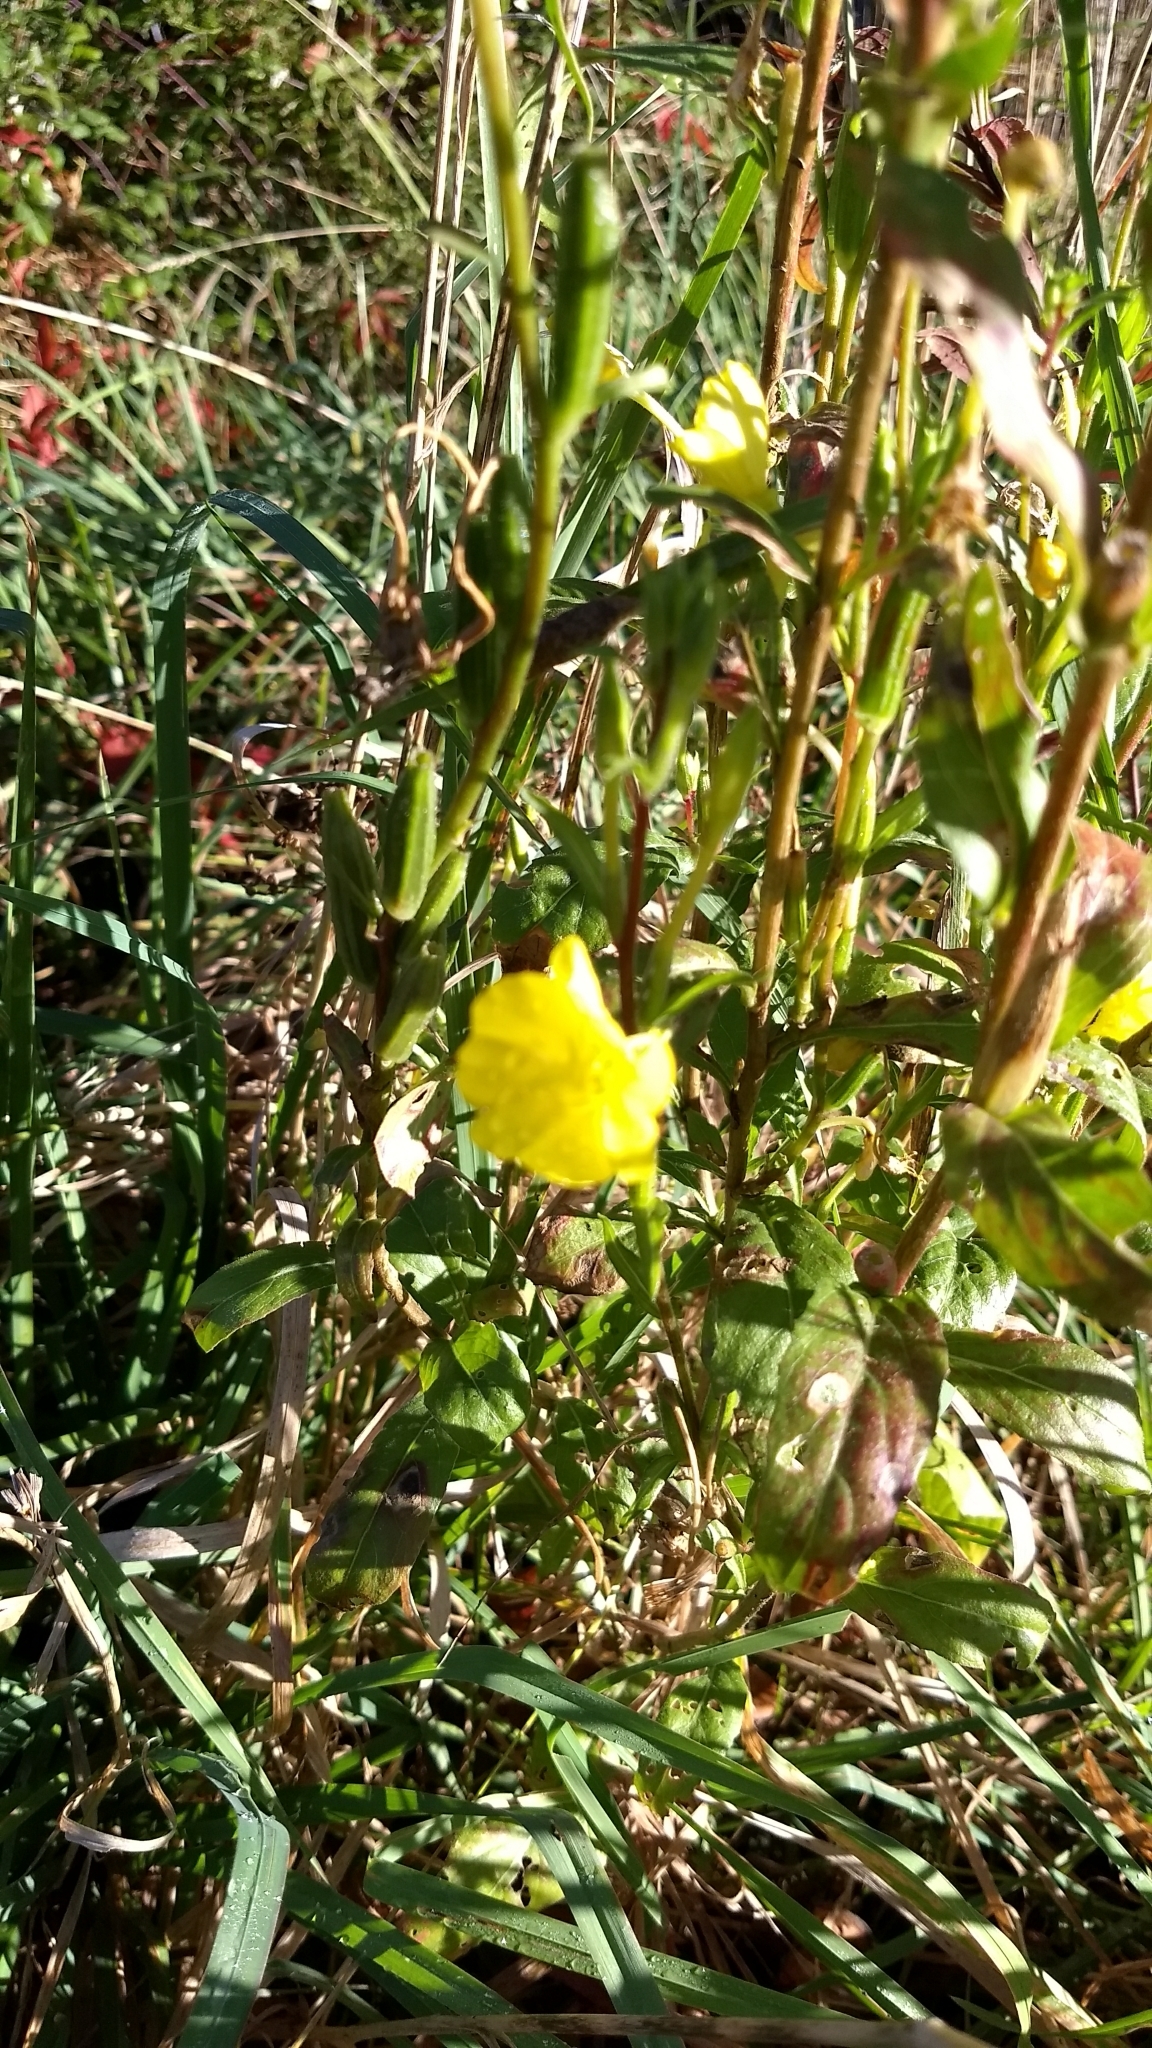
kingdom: Plantae
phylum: Tracheophyta
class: Magnoliopsida
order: Myrtales
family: Onagraceae
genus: Oenothera
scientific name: Oenothera biennis
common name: Common evening-primrose
